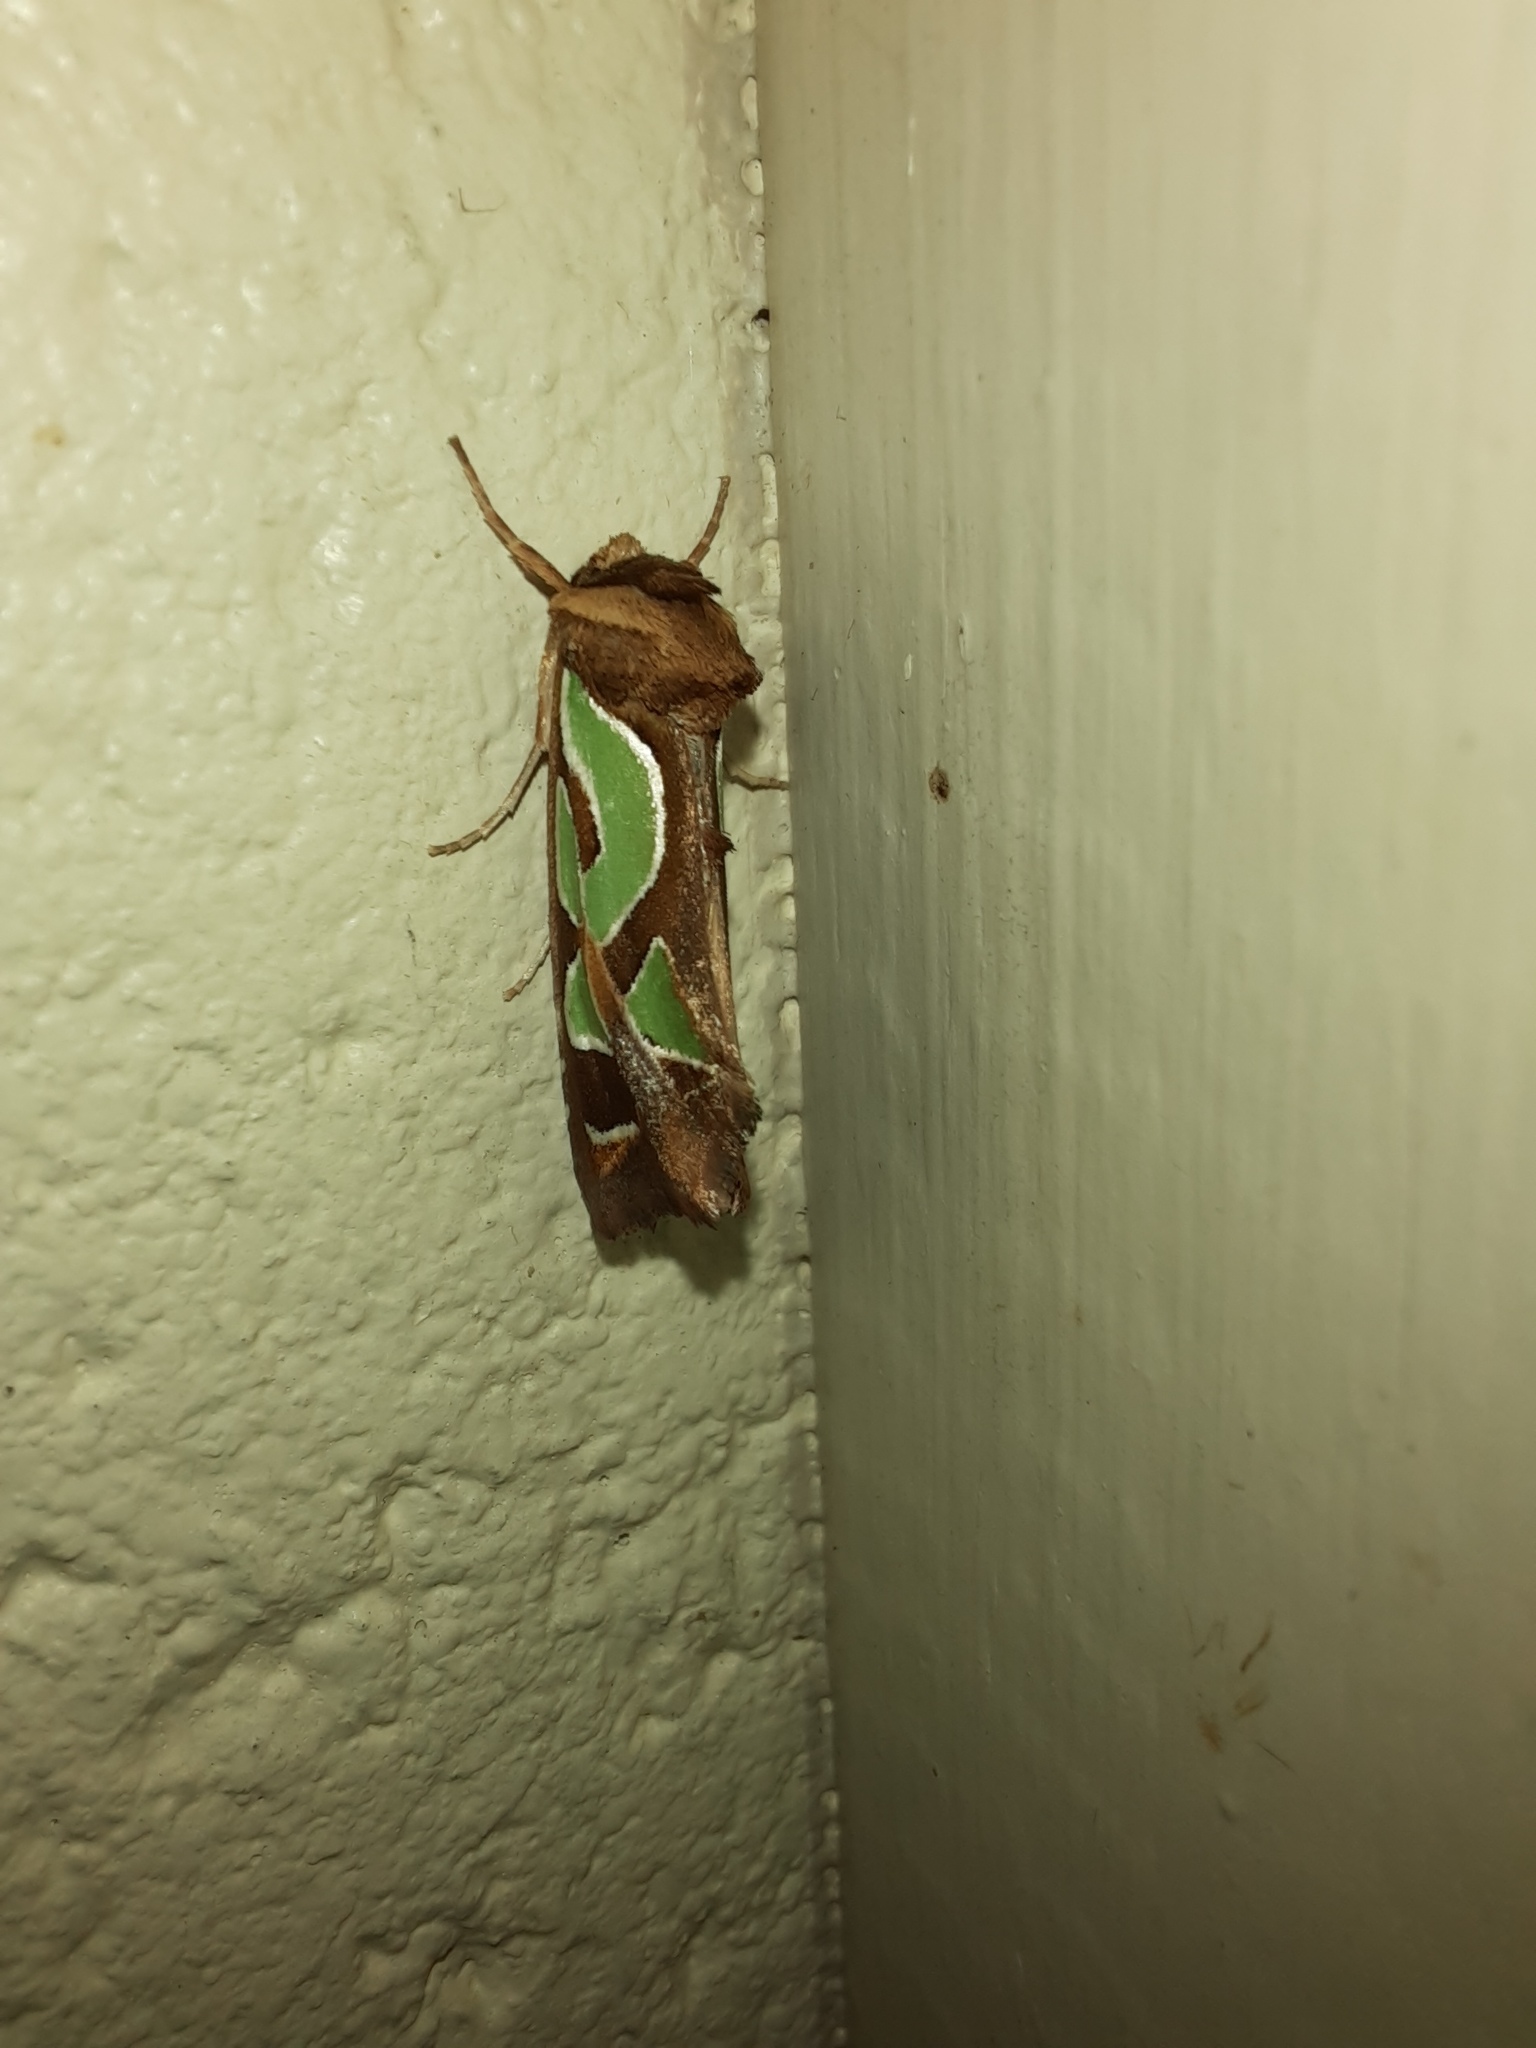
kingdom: Animalia
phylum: Arthropoda
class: Insecta
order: Lepidoptera
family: Noctuidae
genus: Cosmodes
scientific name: Cosmodes elegans
